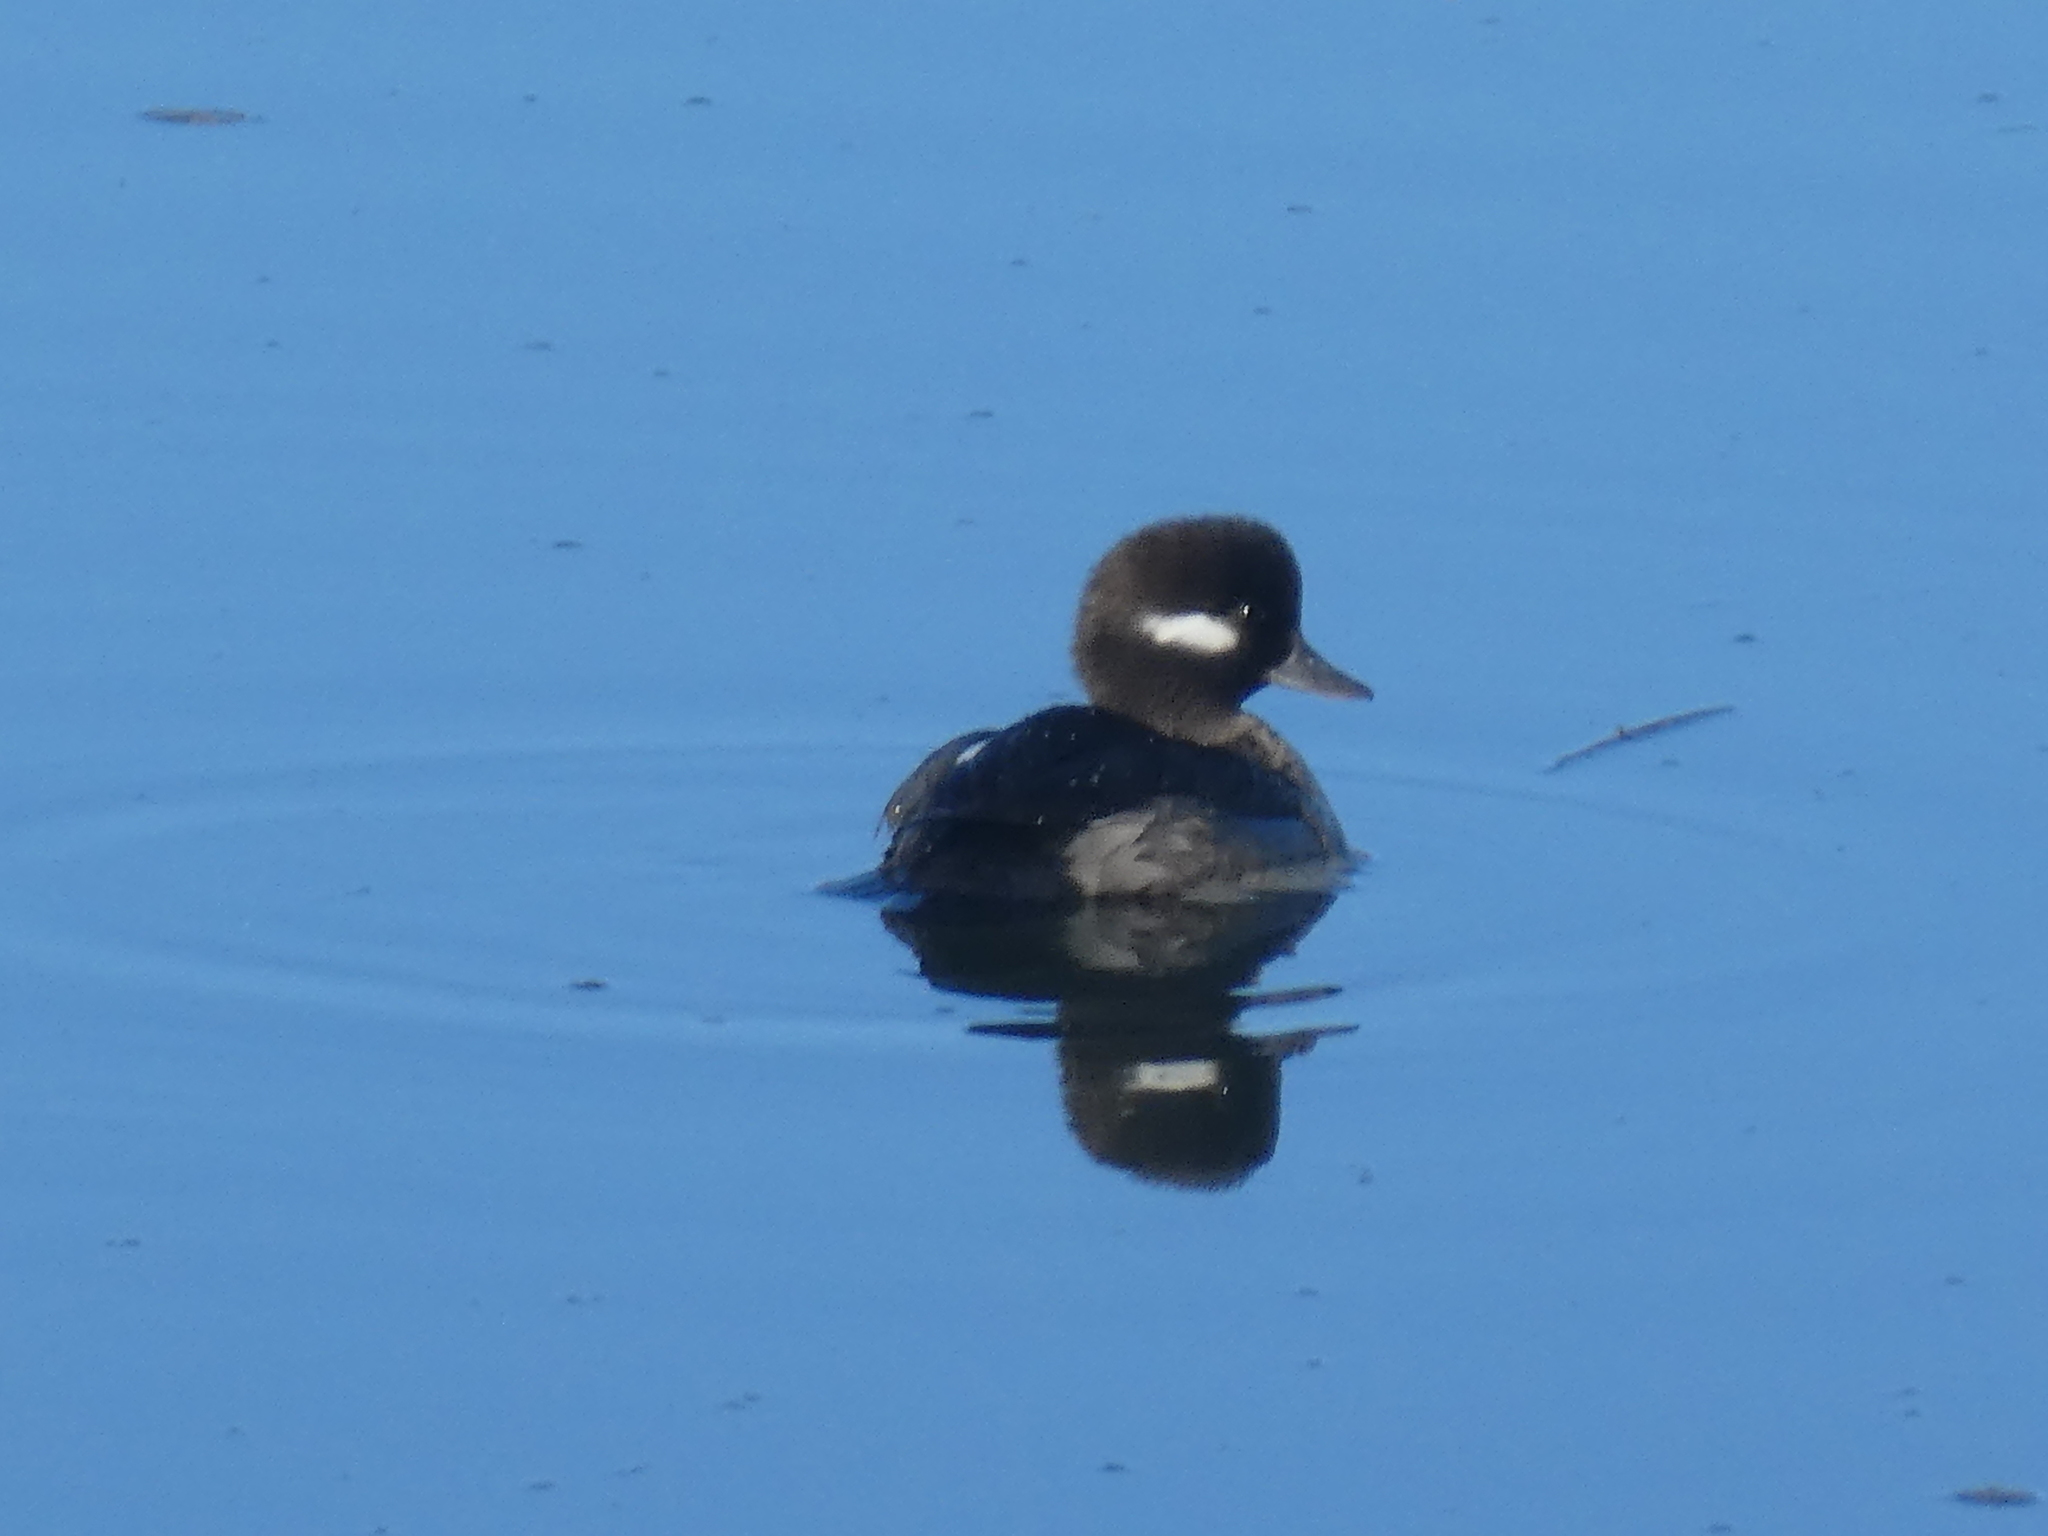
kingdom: Animalia
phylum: Chordata
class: Aves
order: Anseriformes
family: Anatidae
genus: Bucephala
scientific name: Bucephala albeola
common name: Bufflehead
